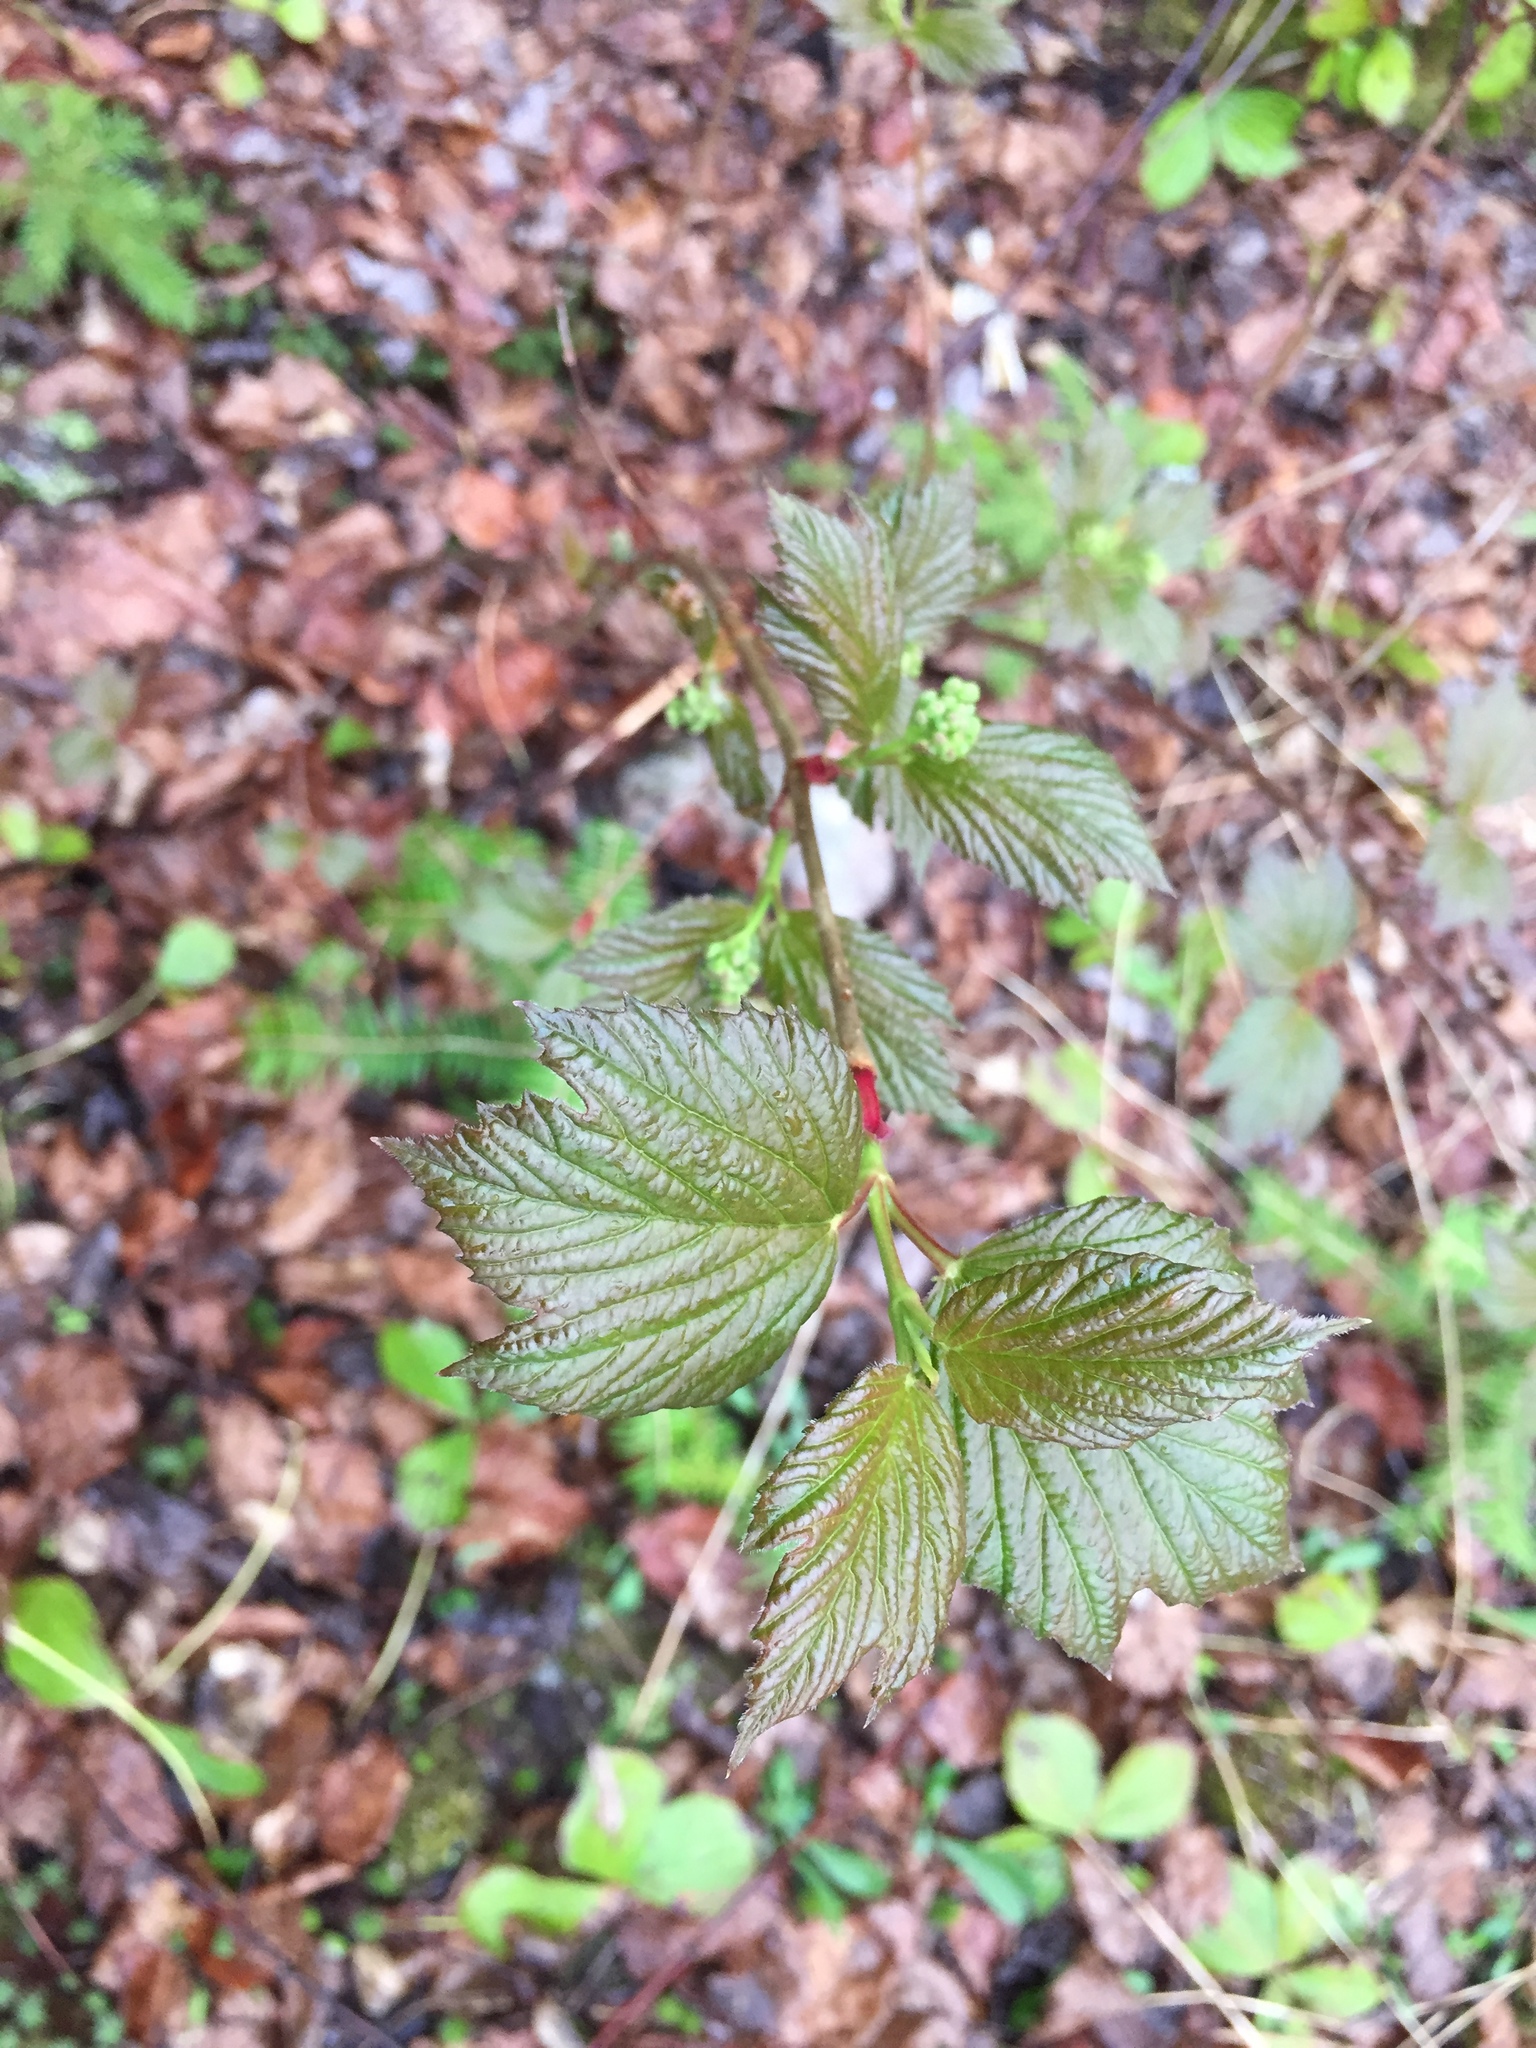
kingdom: Plantae
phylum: Tracheophyta
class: Magnoliopsida
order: Dipsacales
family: Viburnaceae
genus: Viburnum
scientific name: Viburnum edule
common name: Mooseberry
